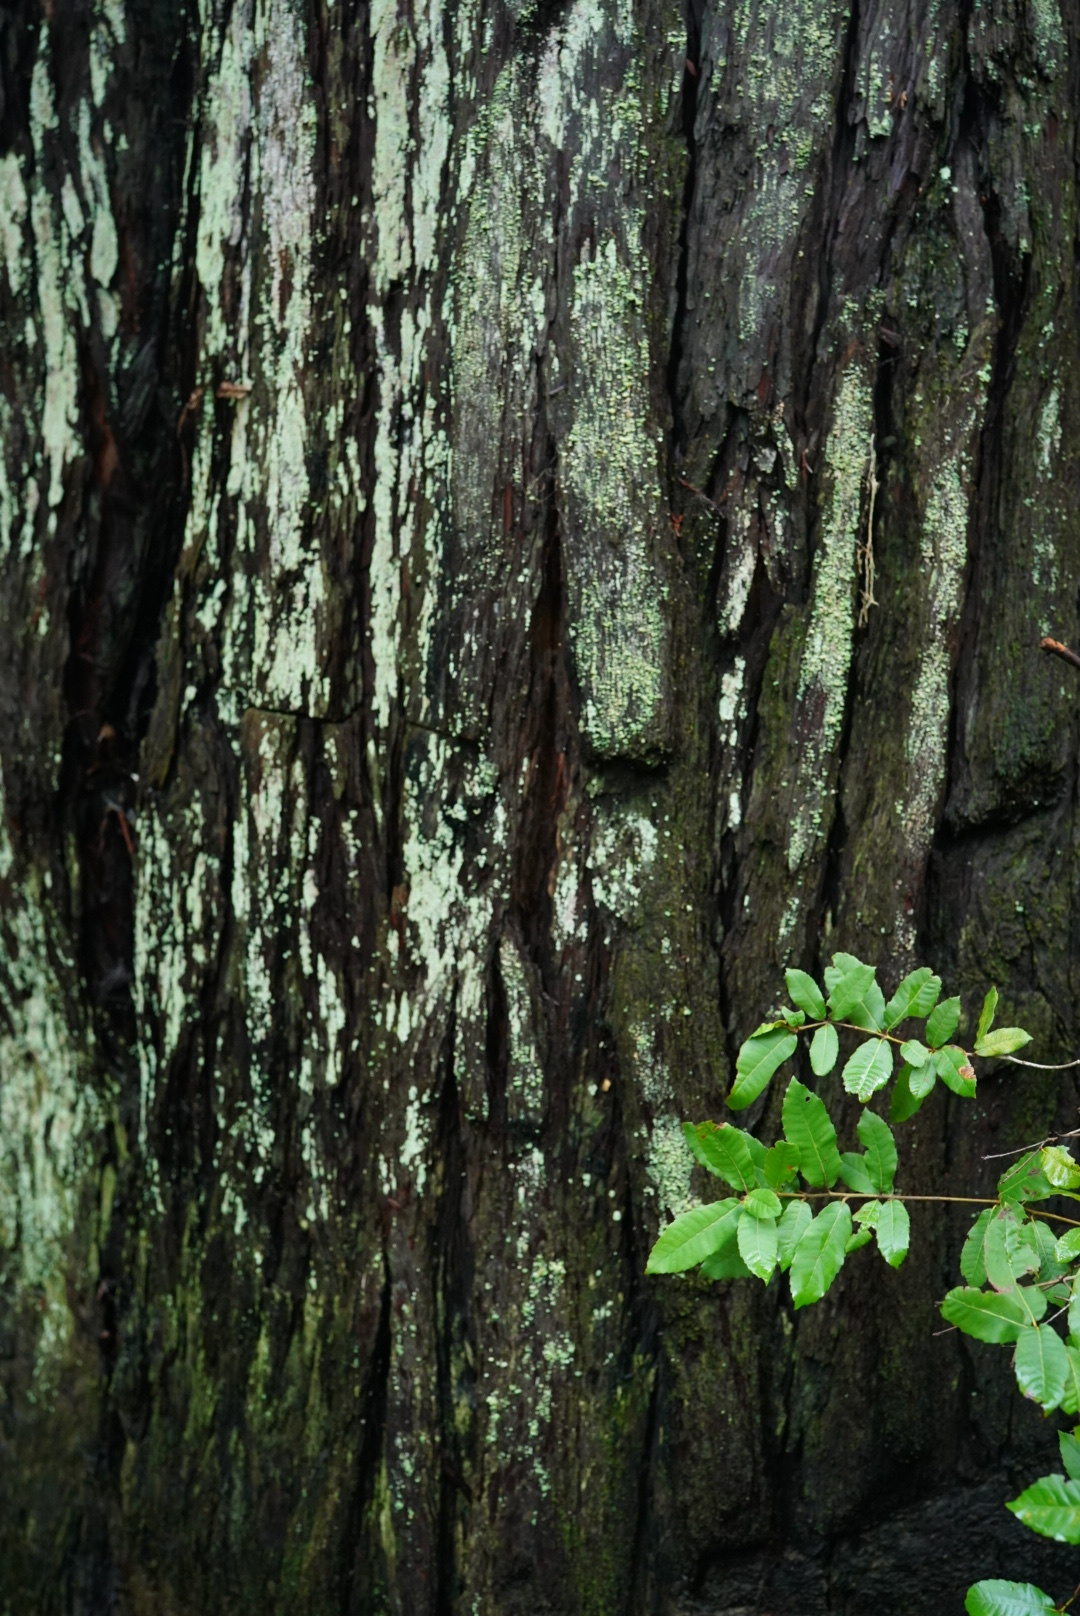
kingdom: Plantae
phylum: Tracheophyta
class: Magnoliopsida
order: Fagales
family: Fagaceae
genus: Notholithocarpus
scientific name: Notholithocarpus densiflorus
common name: Tan bark oak
